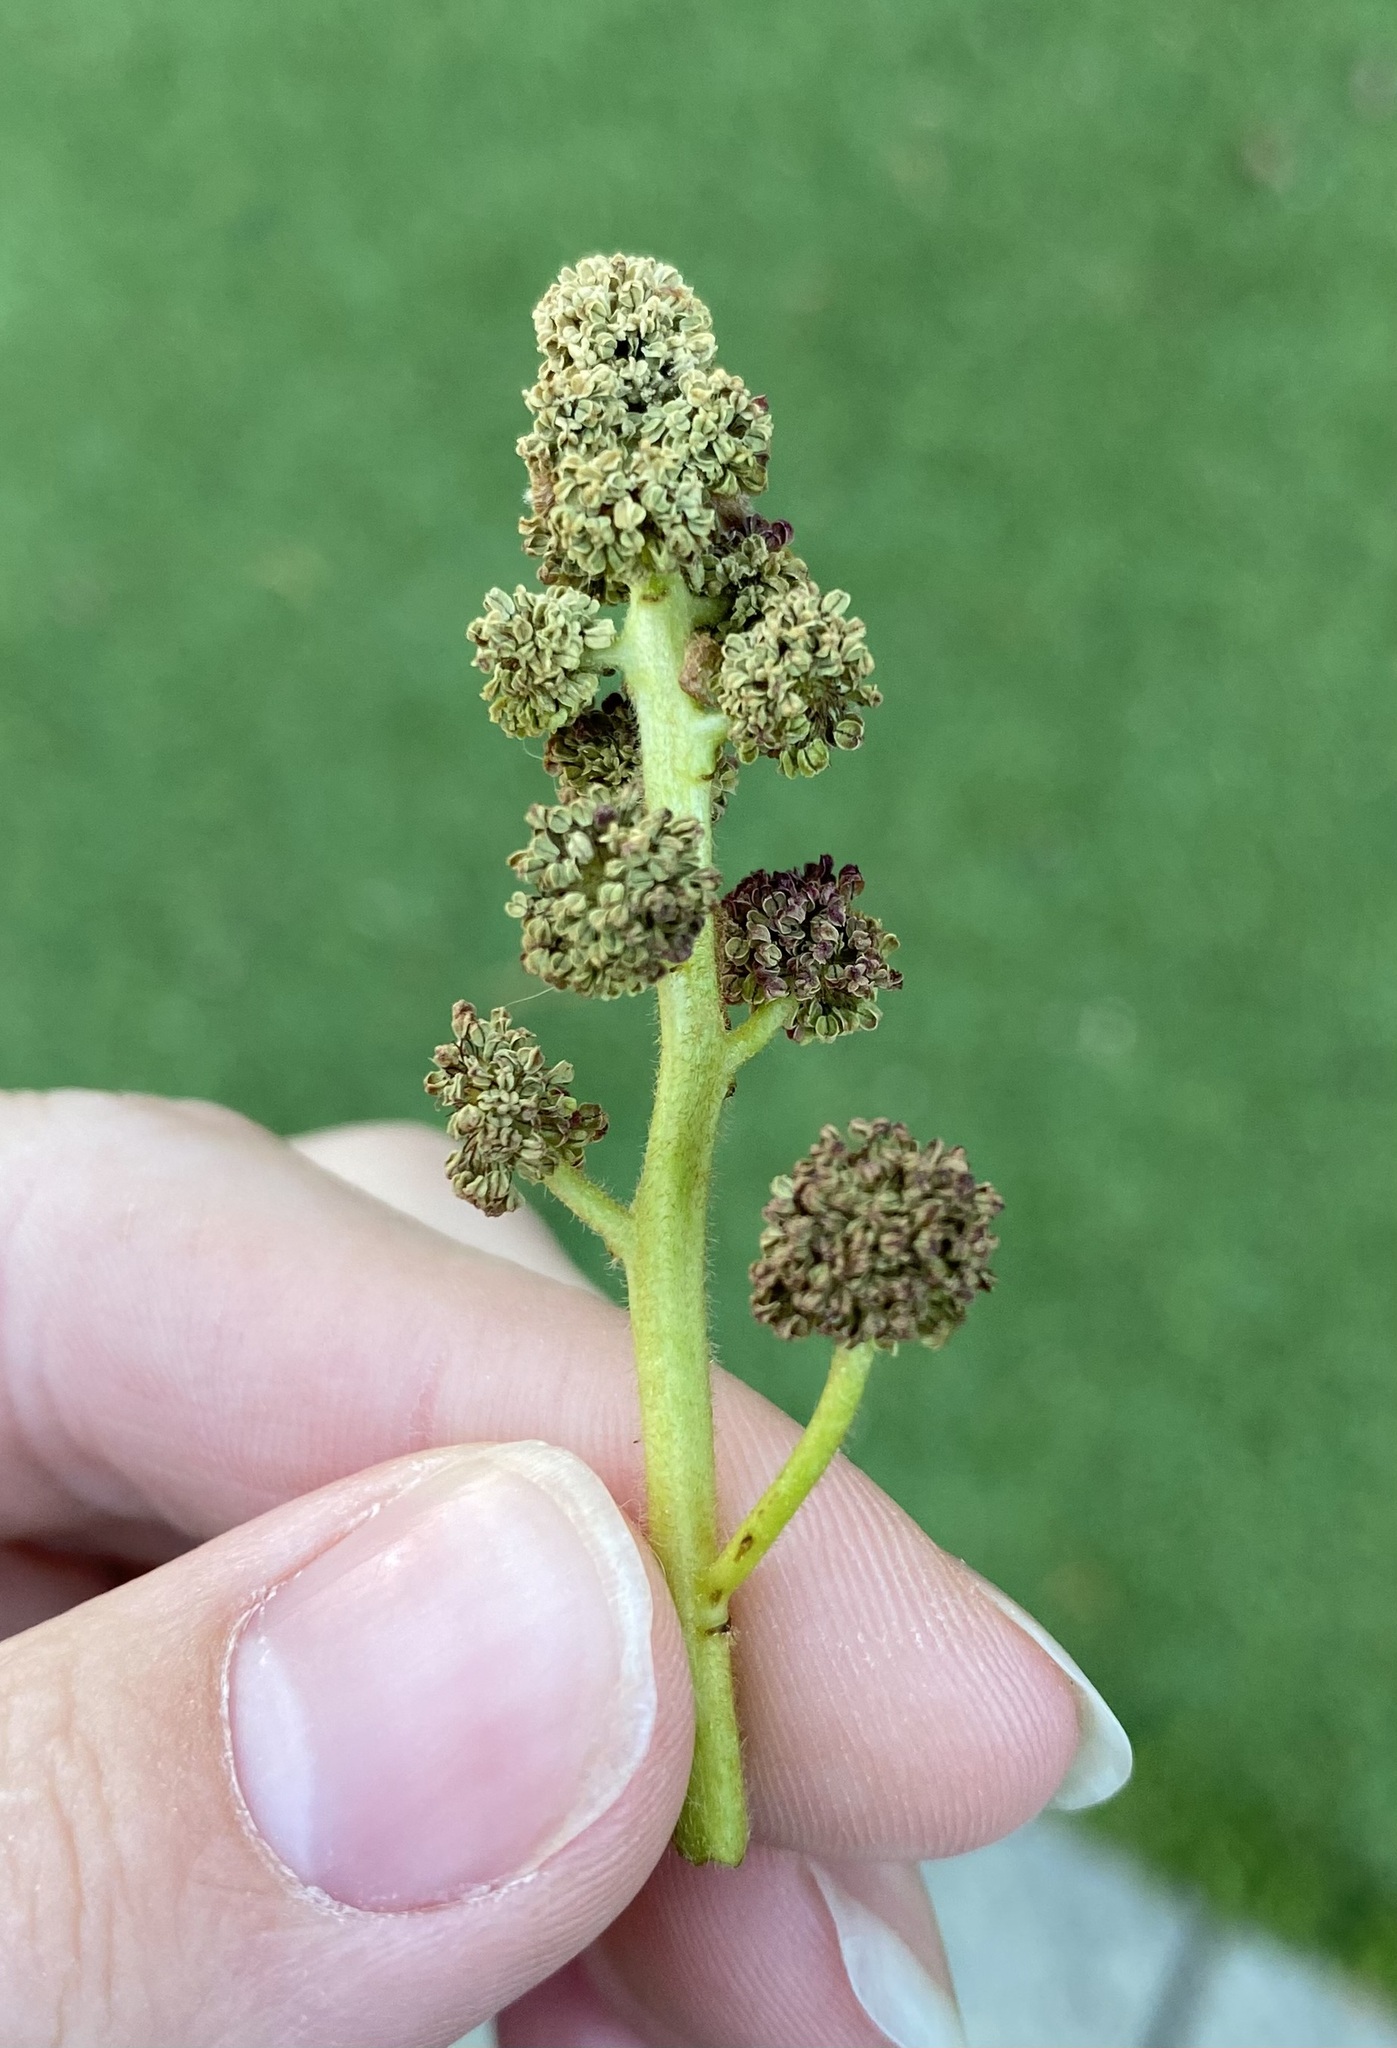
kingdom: Plantae
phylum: Tracheophyta
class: Magnoliopsida
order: Saxifragales
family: Altingiaceae
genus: Liquidambar
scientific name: Liquidambar styraciflua
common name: Sweet gum
